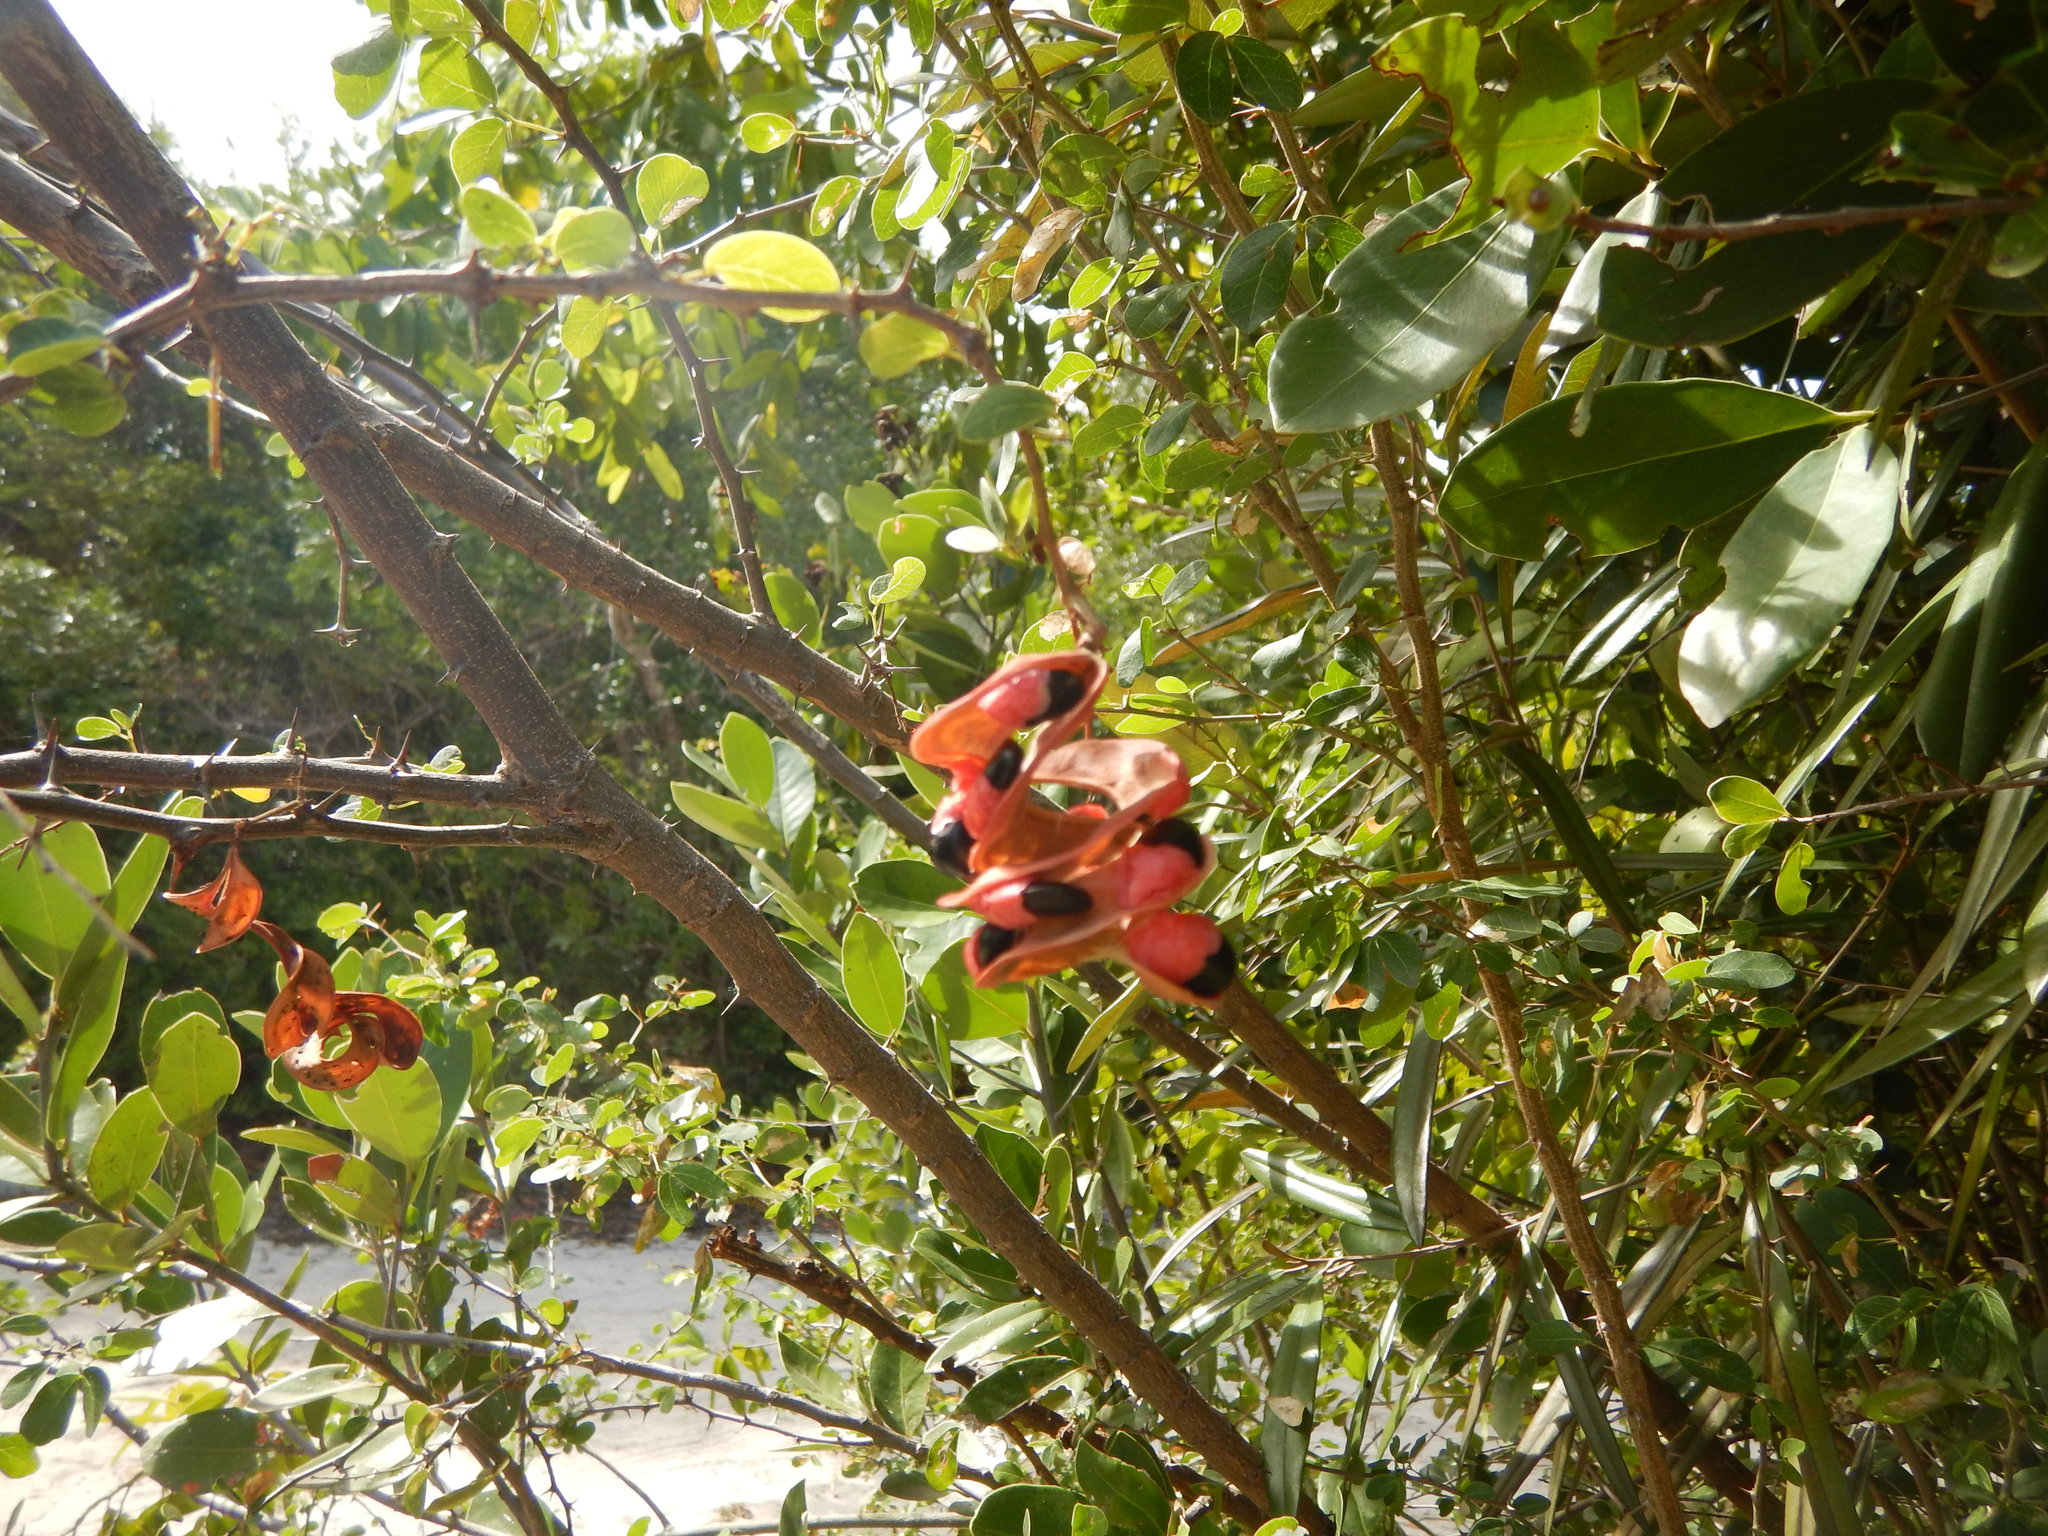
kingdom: Plantae
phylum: Tracheophyta
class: Magnoliopsida
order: Fabales
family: Fabaceae
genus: Pithecellobium
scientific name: Pithecellobium unguis-cati
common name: Cat's-claw
